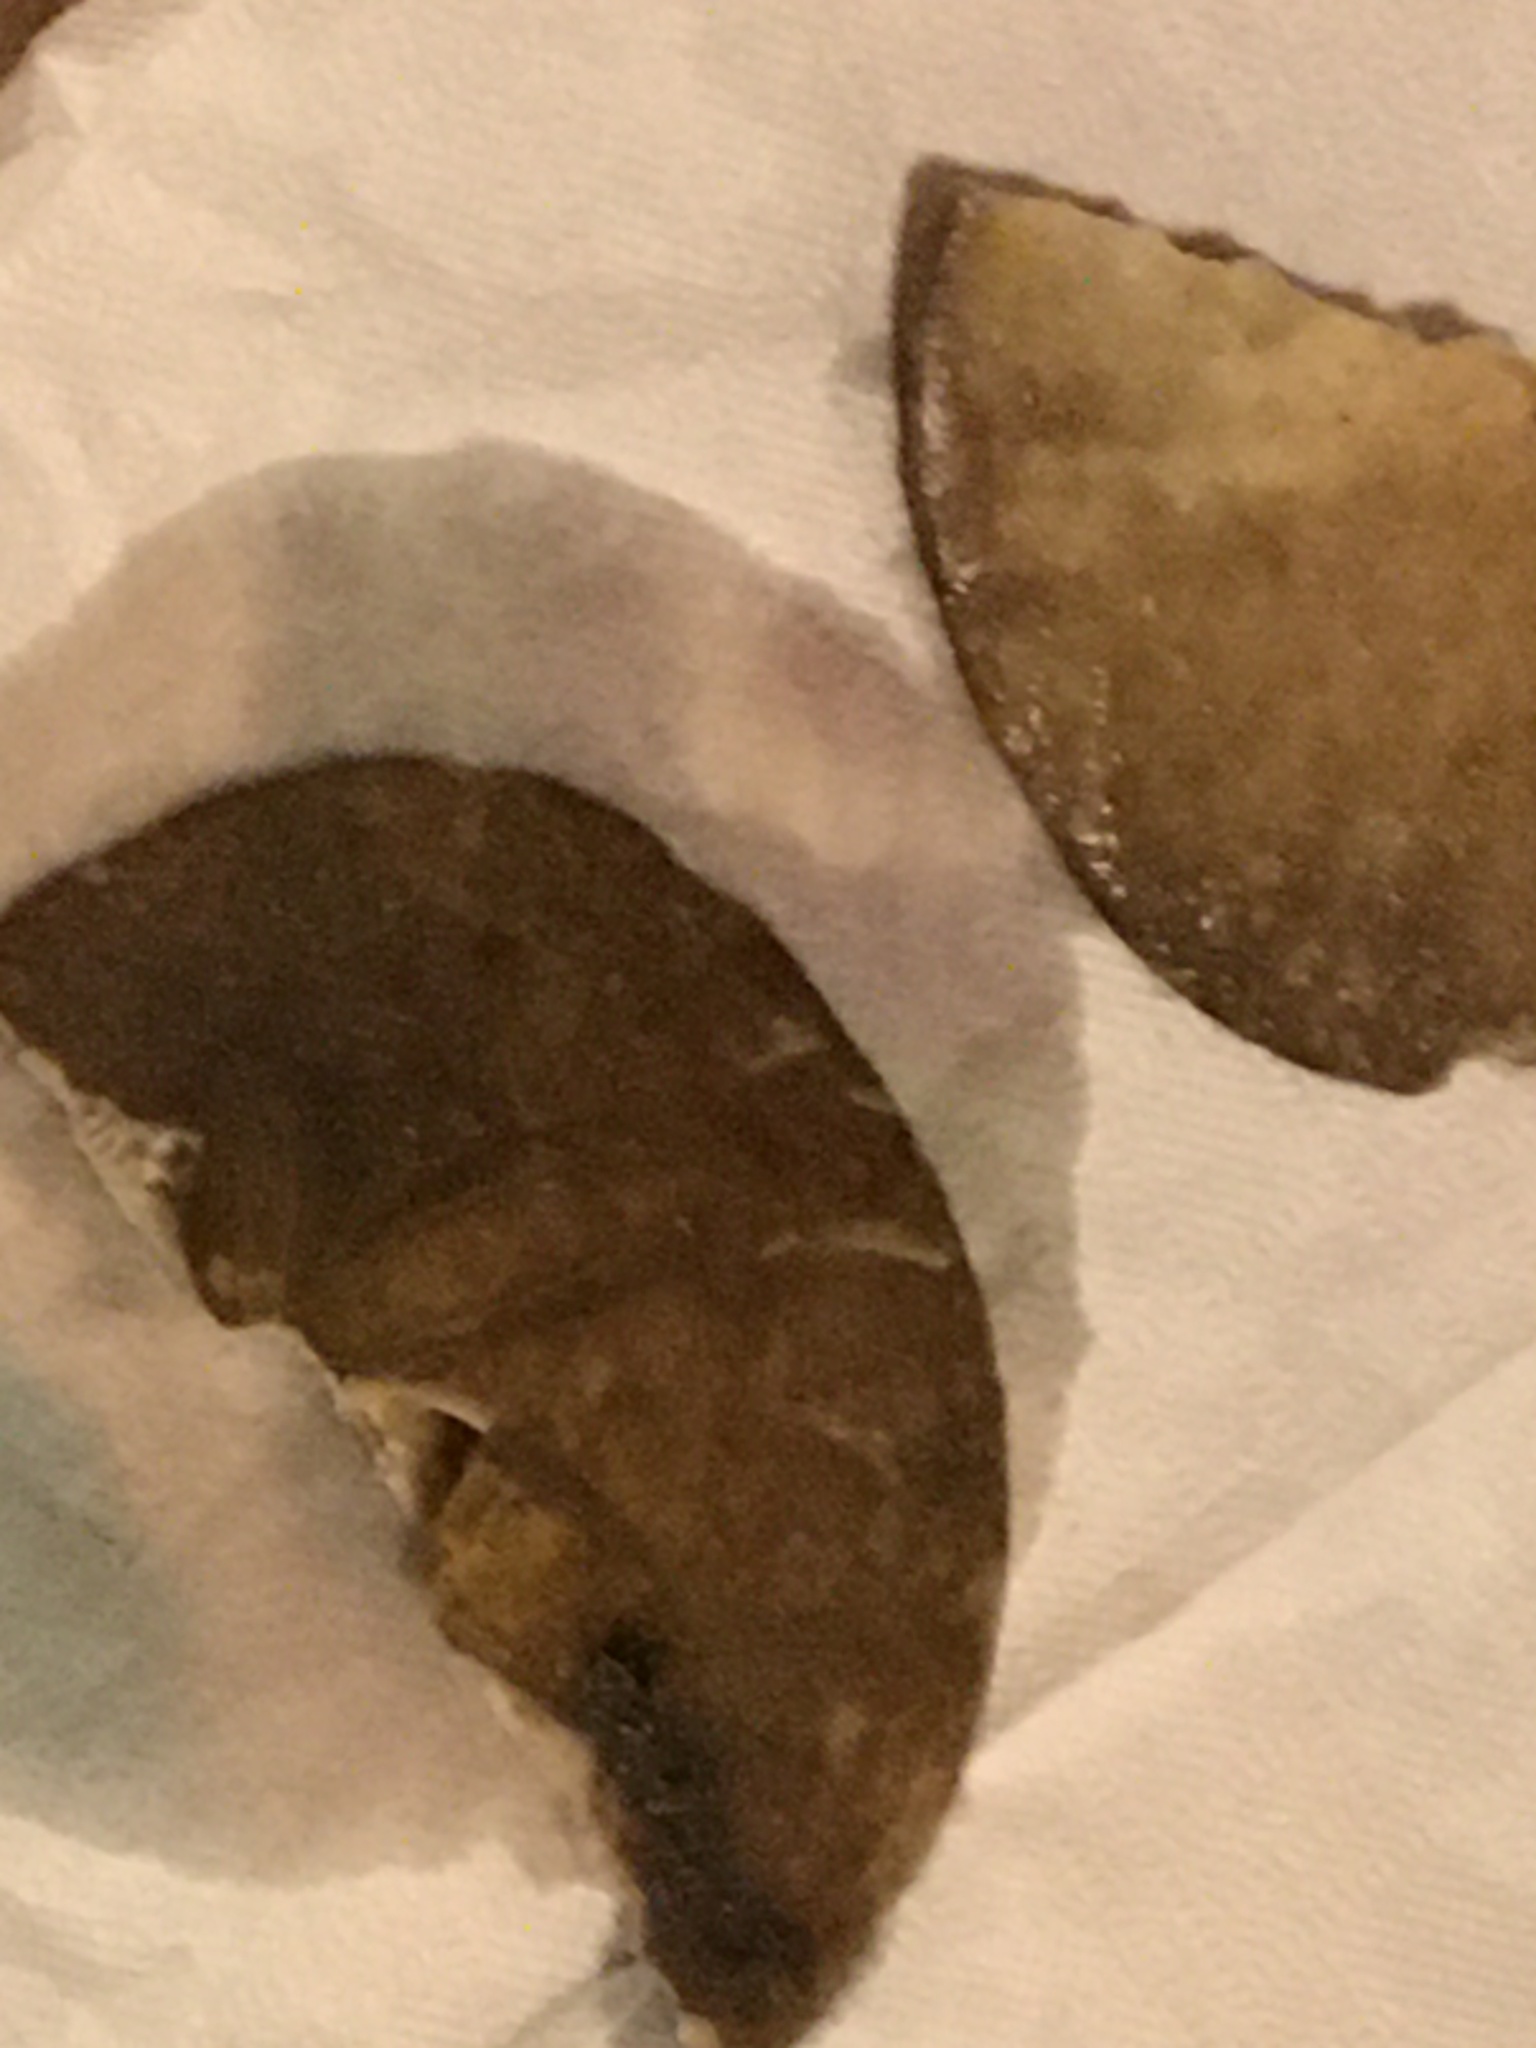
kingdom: Animalia
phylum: Echinodermata
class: Echinoidea
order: Echinolampadacea
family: Dendrasteridae
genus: Dendraster
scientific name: Dendraster excentricus
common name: Eccentric sand dollar sea urchin
